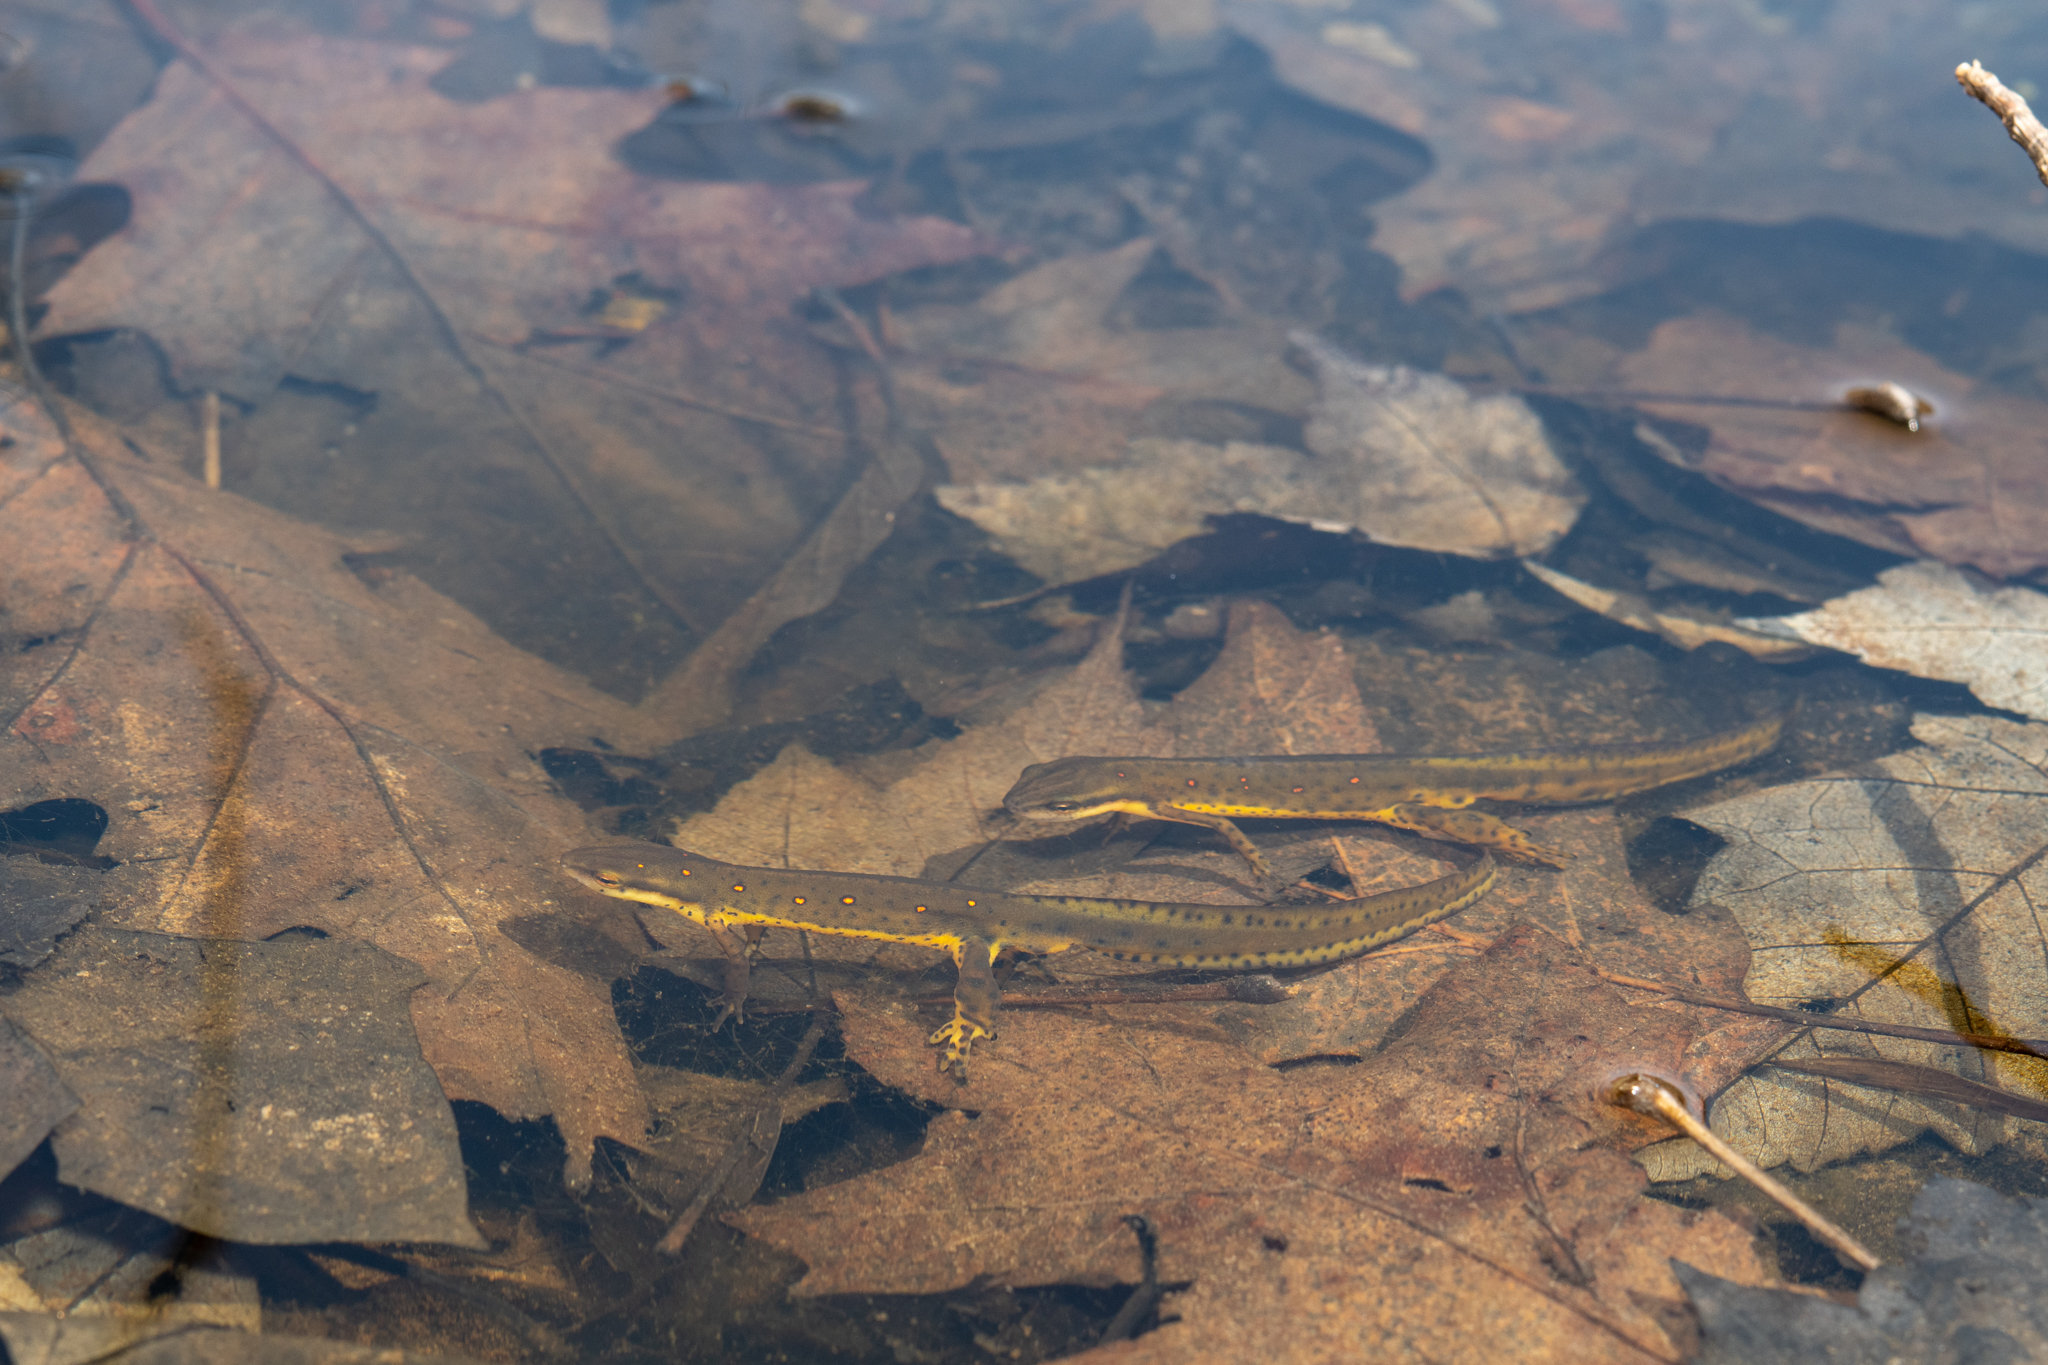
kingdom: Animalia
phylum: Chordata
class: Amphibia
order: Caudata
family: Salamandridae
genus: Notophthalmus
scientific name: Notophthalmus viridescens
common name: Eastern newt
